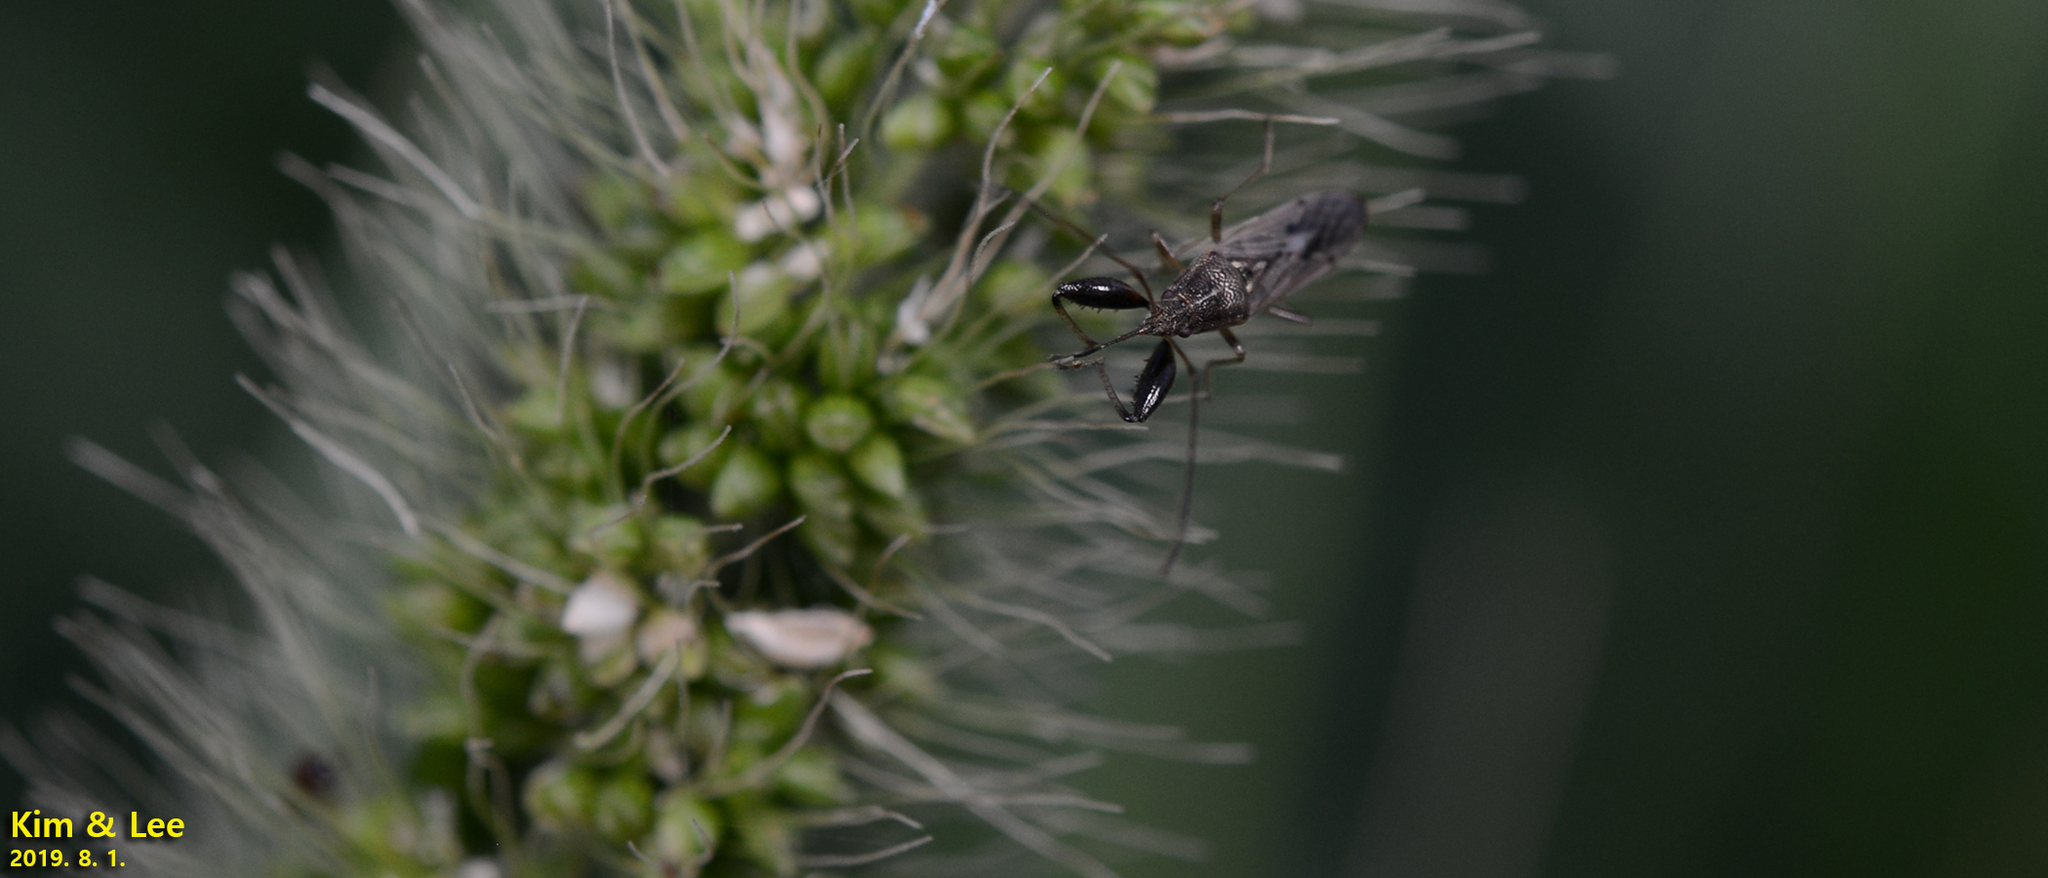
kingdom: Animalia
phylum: Arthropoda
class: Insecta
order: Hemiptera
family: Pachygronthidae
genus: Pachygrontha
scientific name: Pachygrontha antennata
